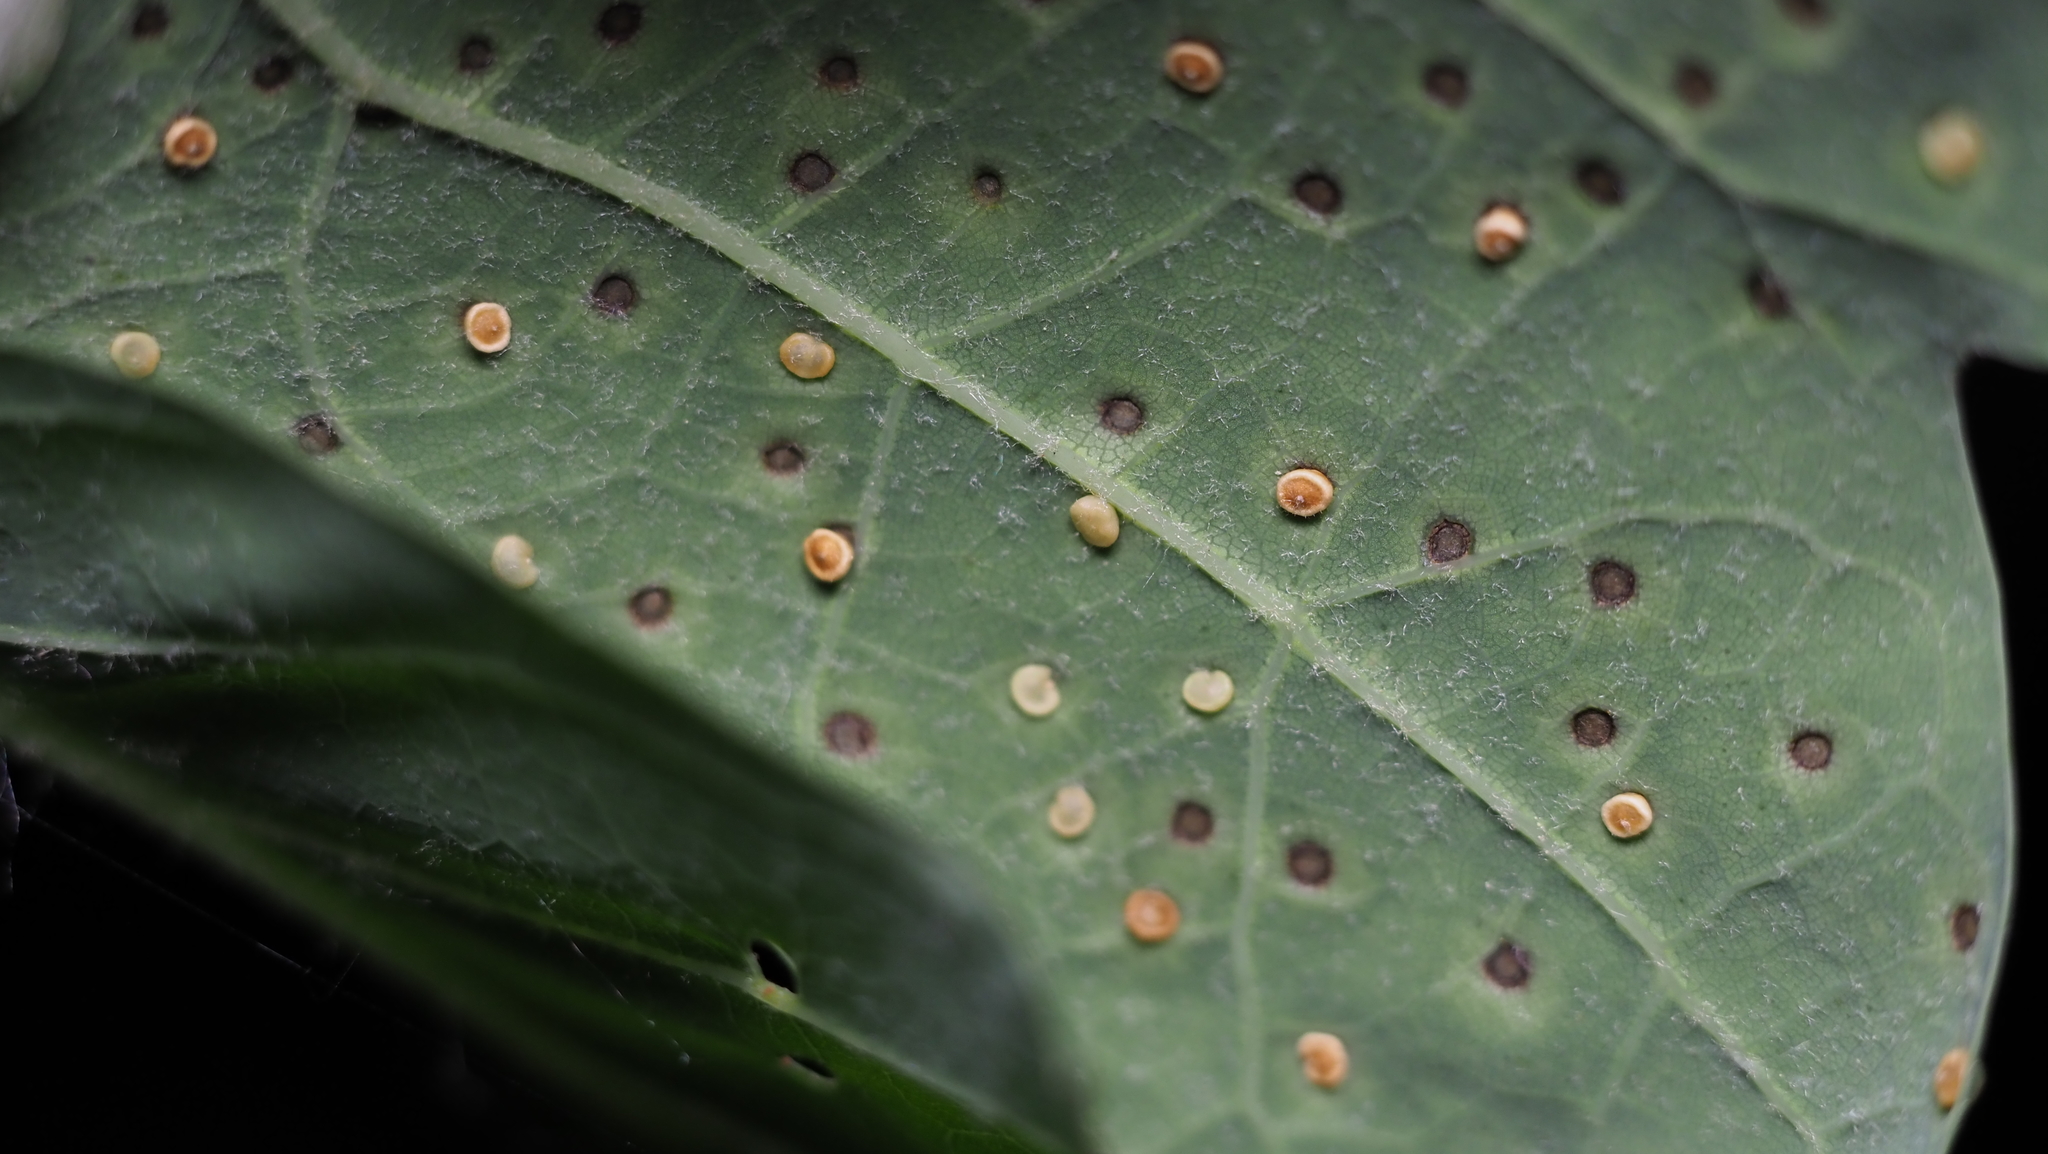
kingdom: Animalia
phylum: Arthropoda
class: Insecta
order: Hymenoptera
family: Cynipidae
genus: Neuroterus
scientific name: Neuroterus
